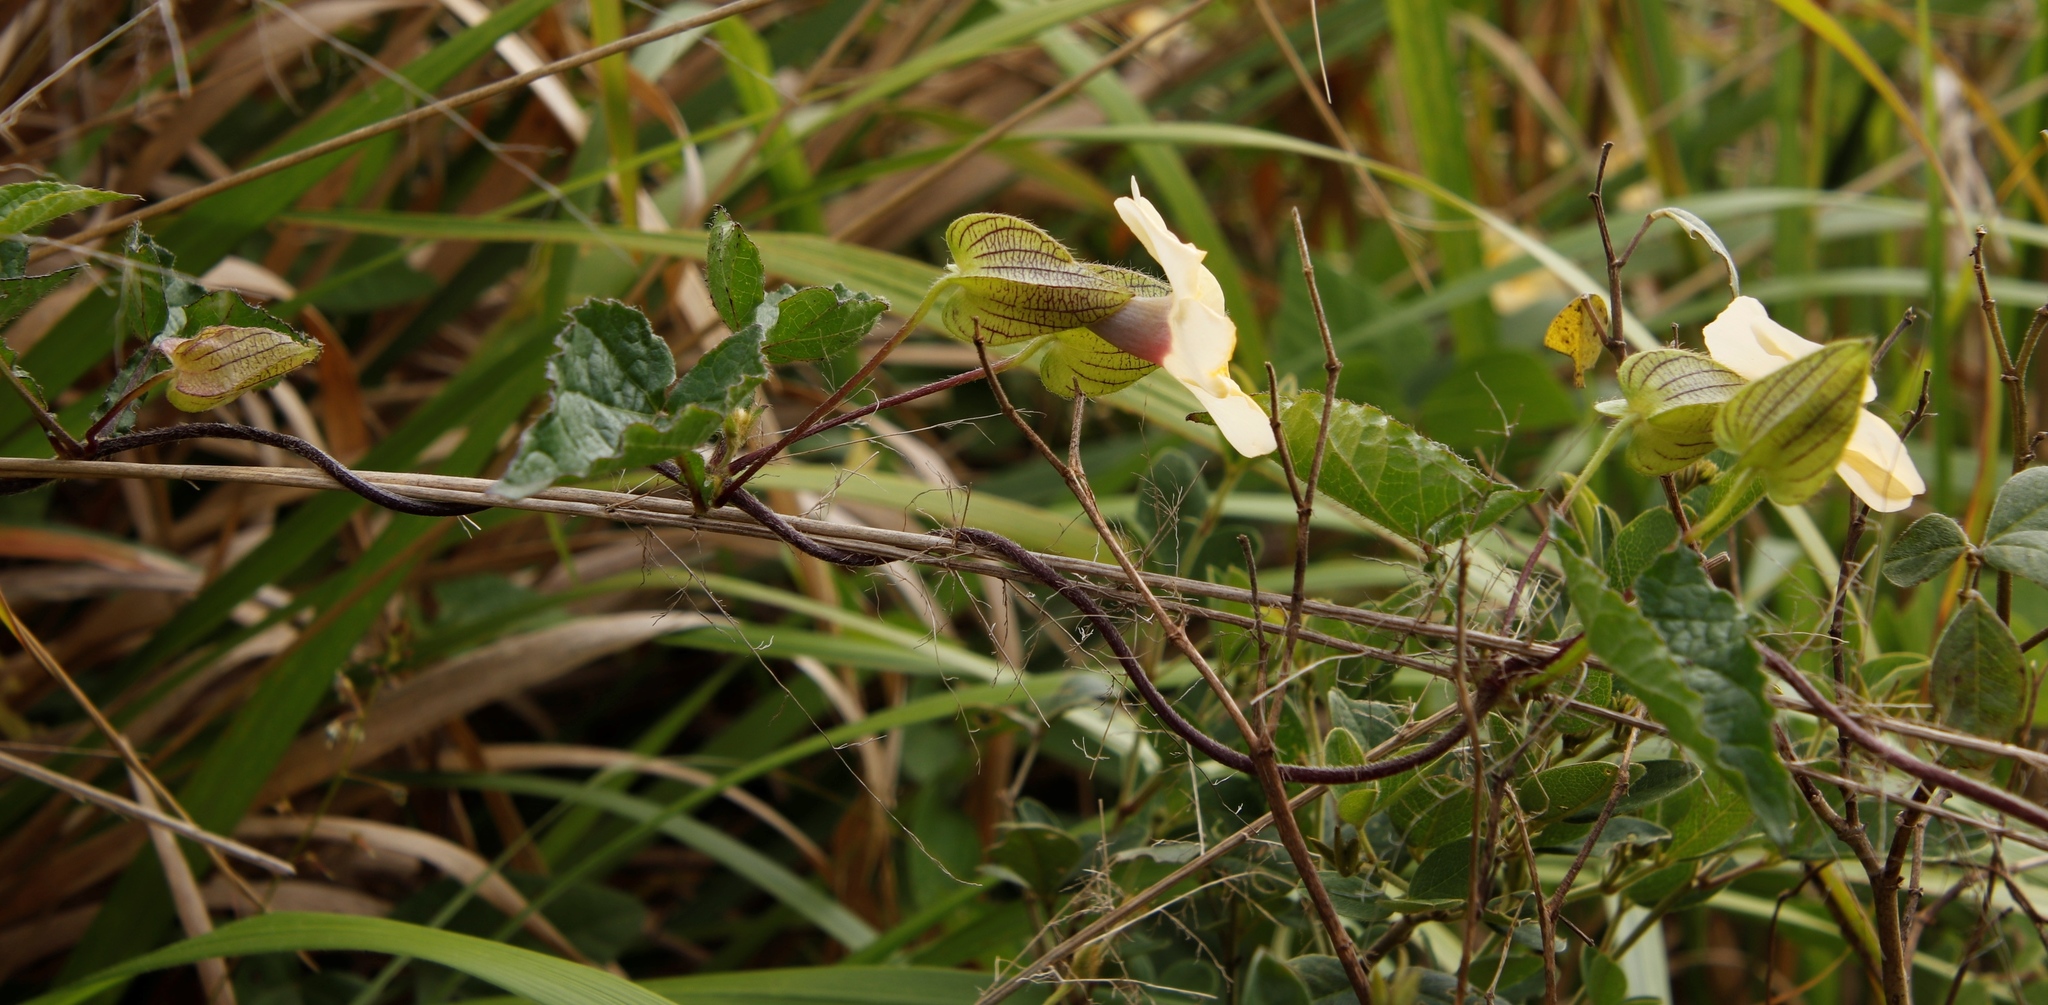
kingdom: Plantae
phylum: Tracheophyta
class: Magnoliopsida
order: Lamiales
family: Acanthaceae
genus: Thunbergia
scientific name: Thunbergia alata
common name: Blackeyed susan vine
